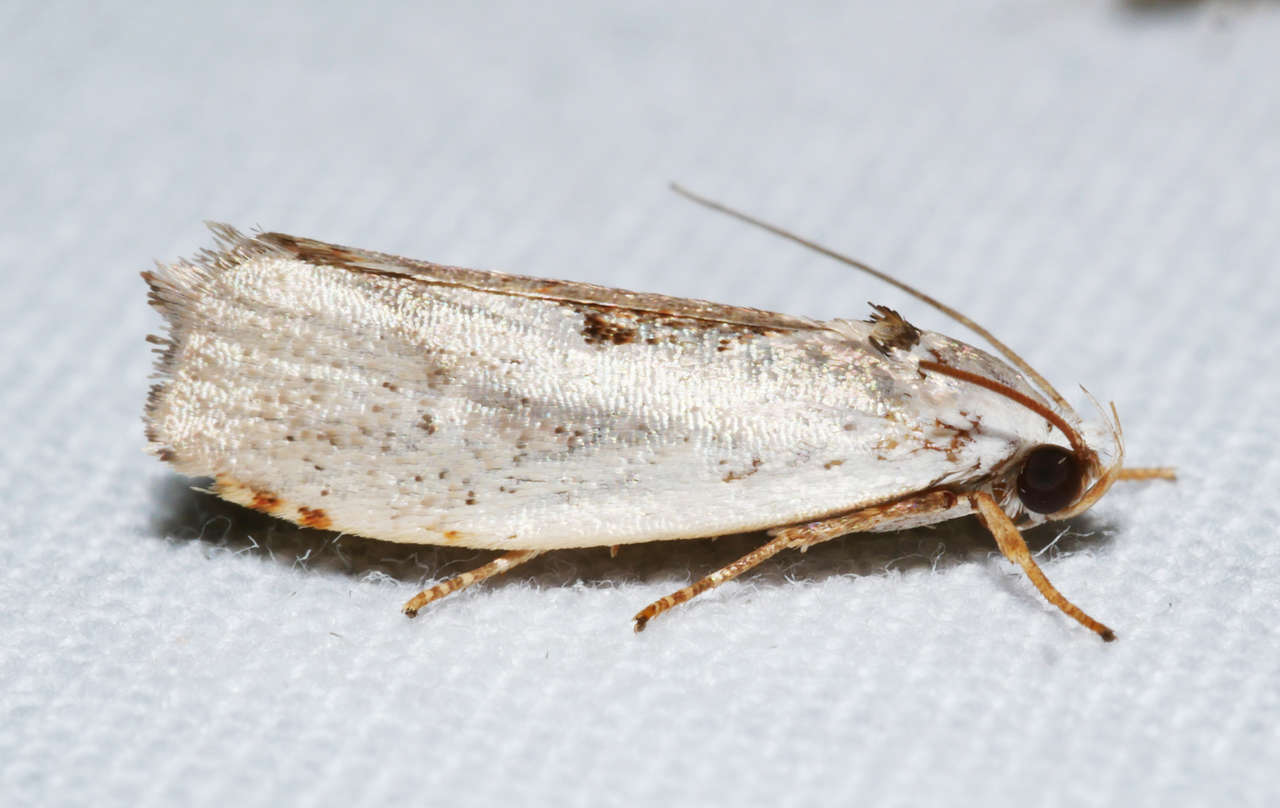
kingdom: Animalia
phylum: Arthropoda
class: Insecta
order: Lepidoptera
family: Xyloryctidae
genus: Tymbophora
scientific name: Tymbophora peltastis
